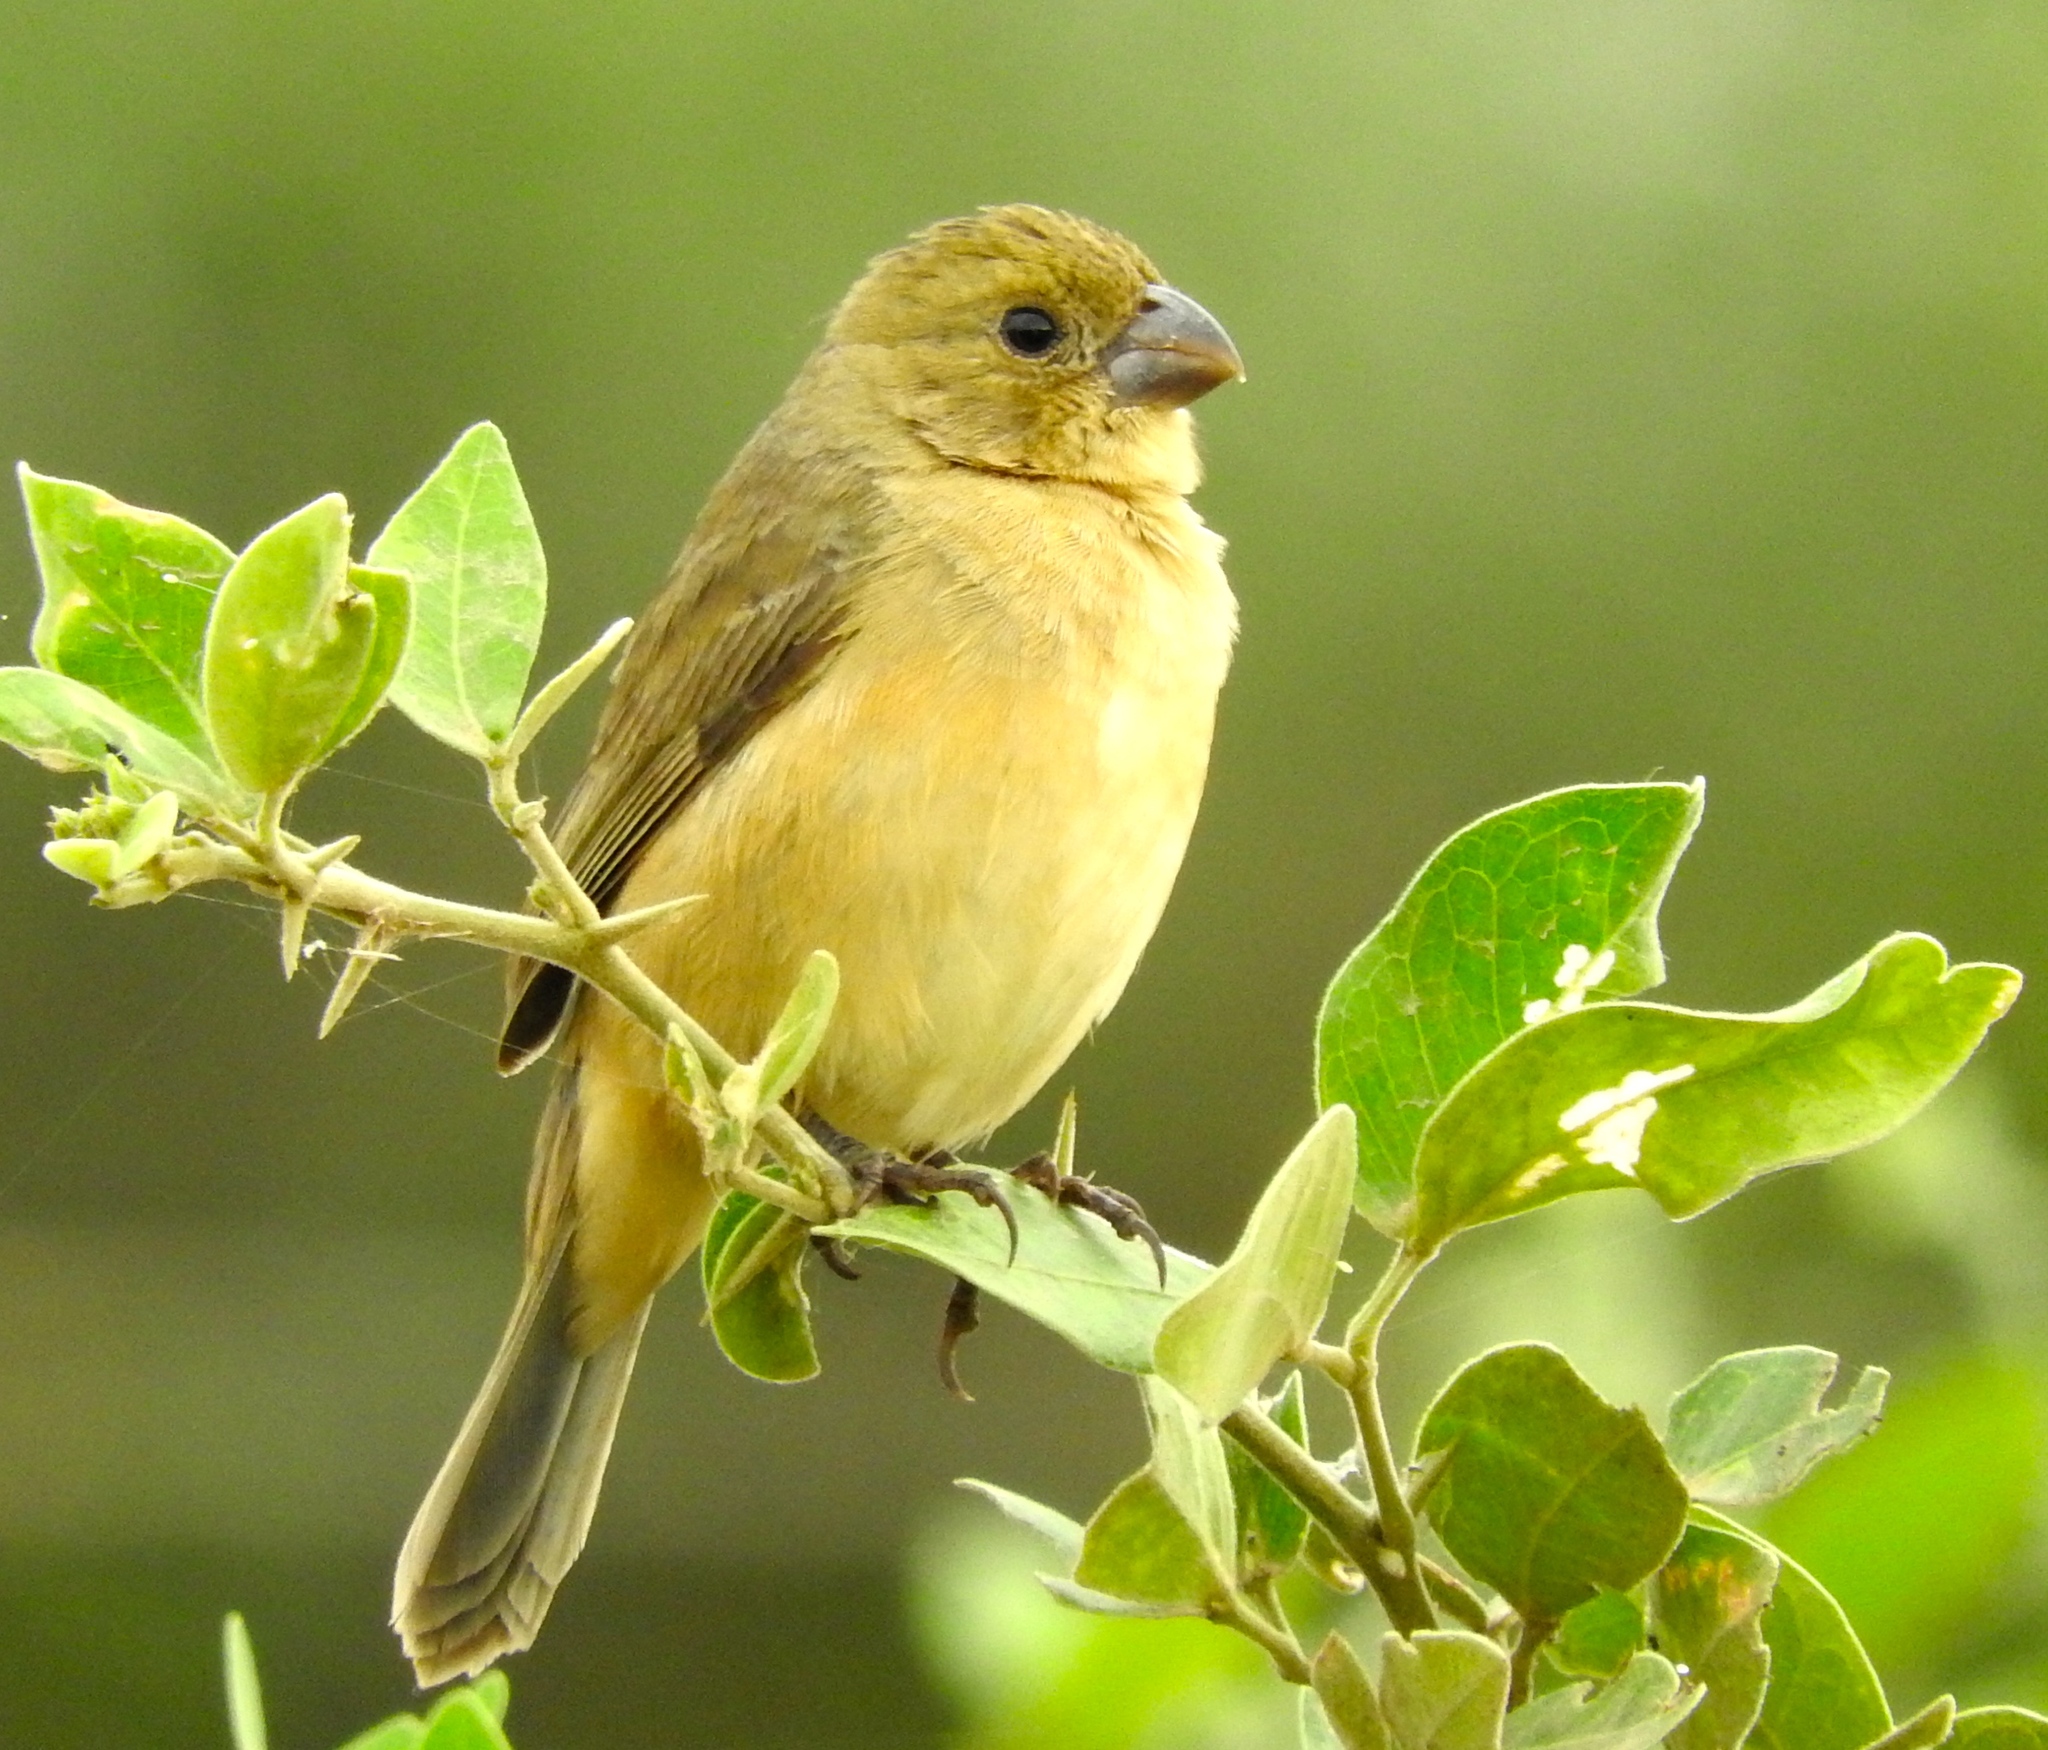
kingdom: Animalia
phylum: Chordata
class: Aves
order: Passeriformes
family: Thraupidae
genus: Sporophila
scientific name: Sporophila torqueola
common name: White-collared seedeater
